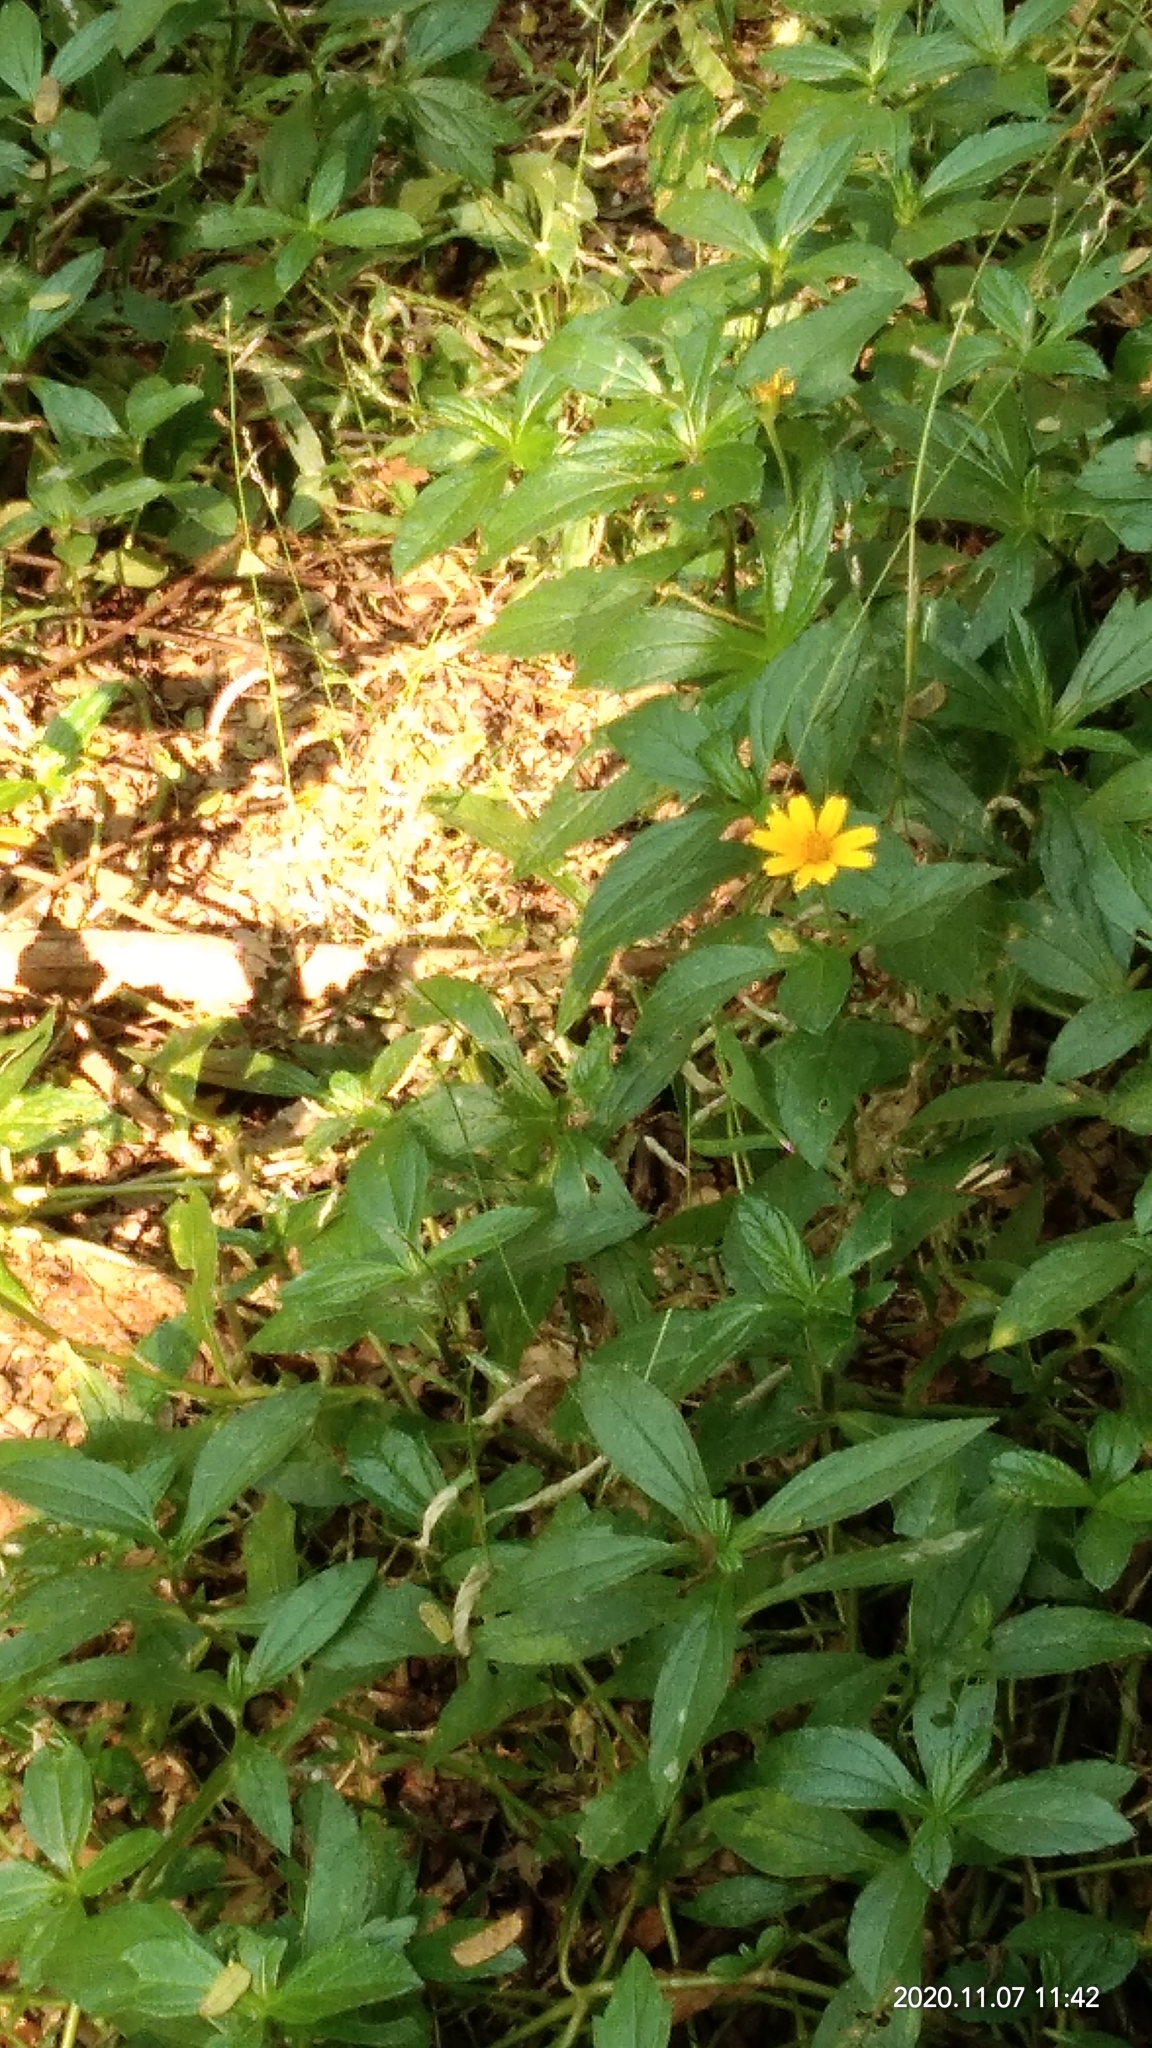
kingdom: Plantae
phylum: Tracheophyta
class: Magnoliopsida
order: Asterales
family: Asteraceae
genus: Sphagneticola
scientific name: Sphagneticola trilobata
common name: Bay biscayne creeping-oxeye
